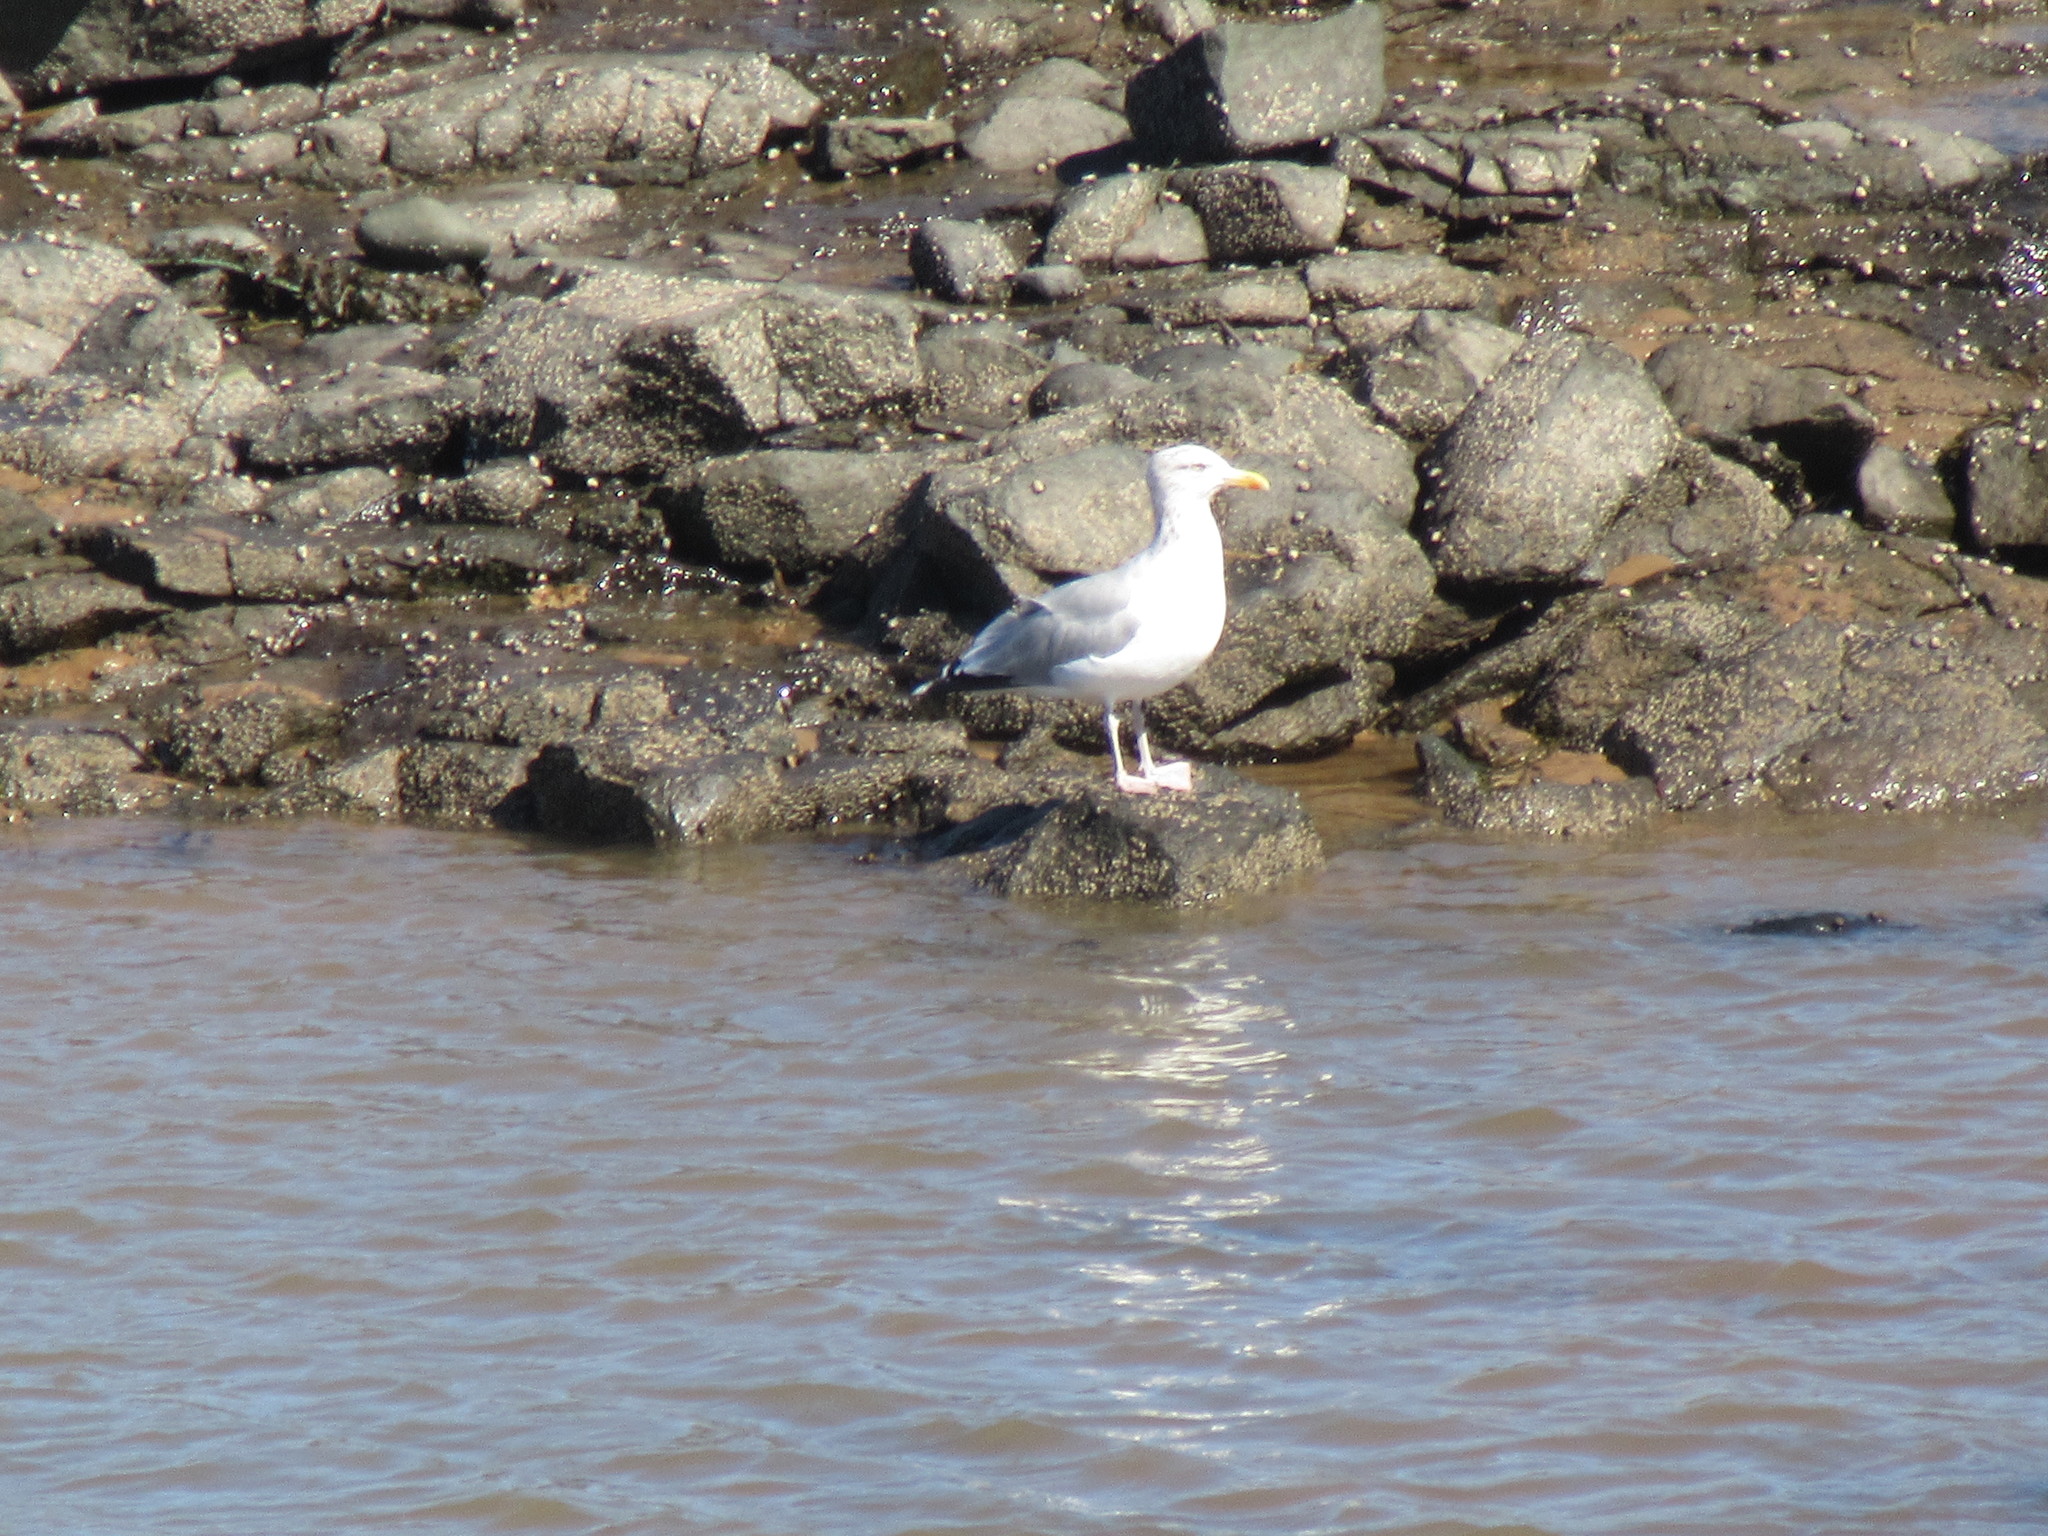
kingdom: Animalia
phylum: Chordata
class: Aves
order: Charadriiformes
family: Laridae
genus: Larus
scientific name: Larus argentatus
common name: Herring gull
